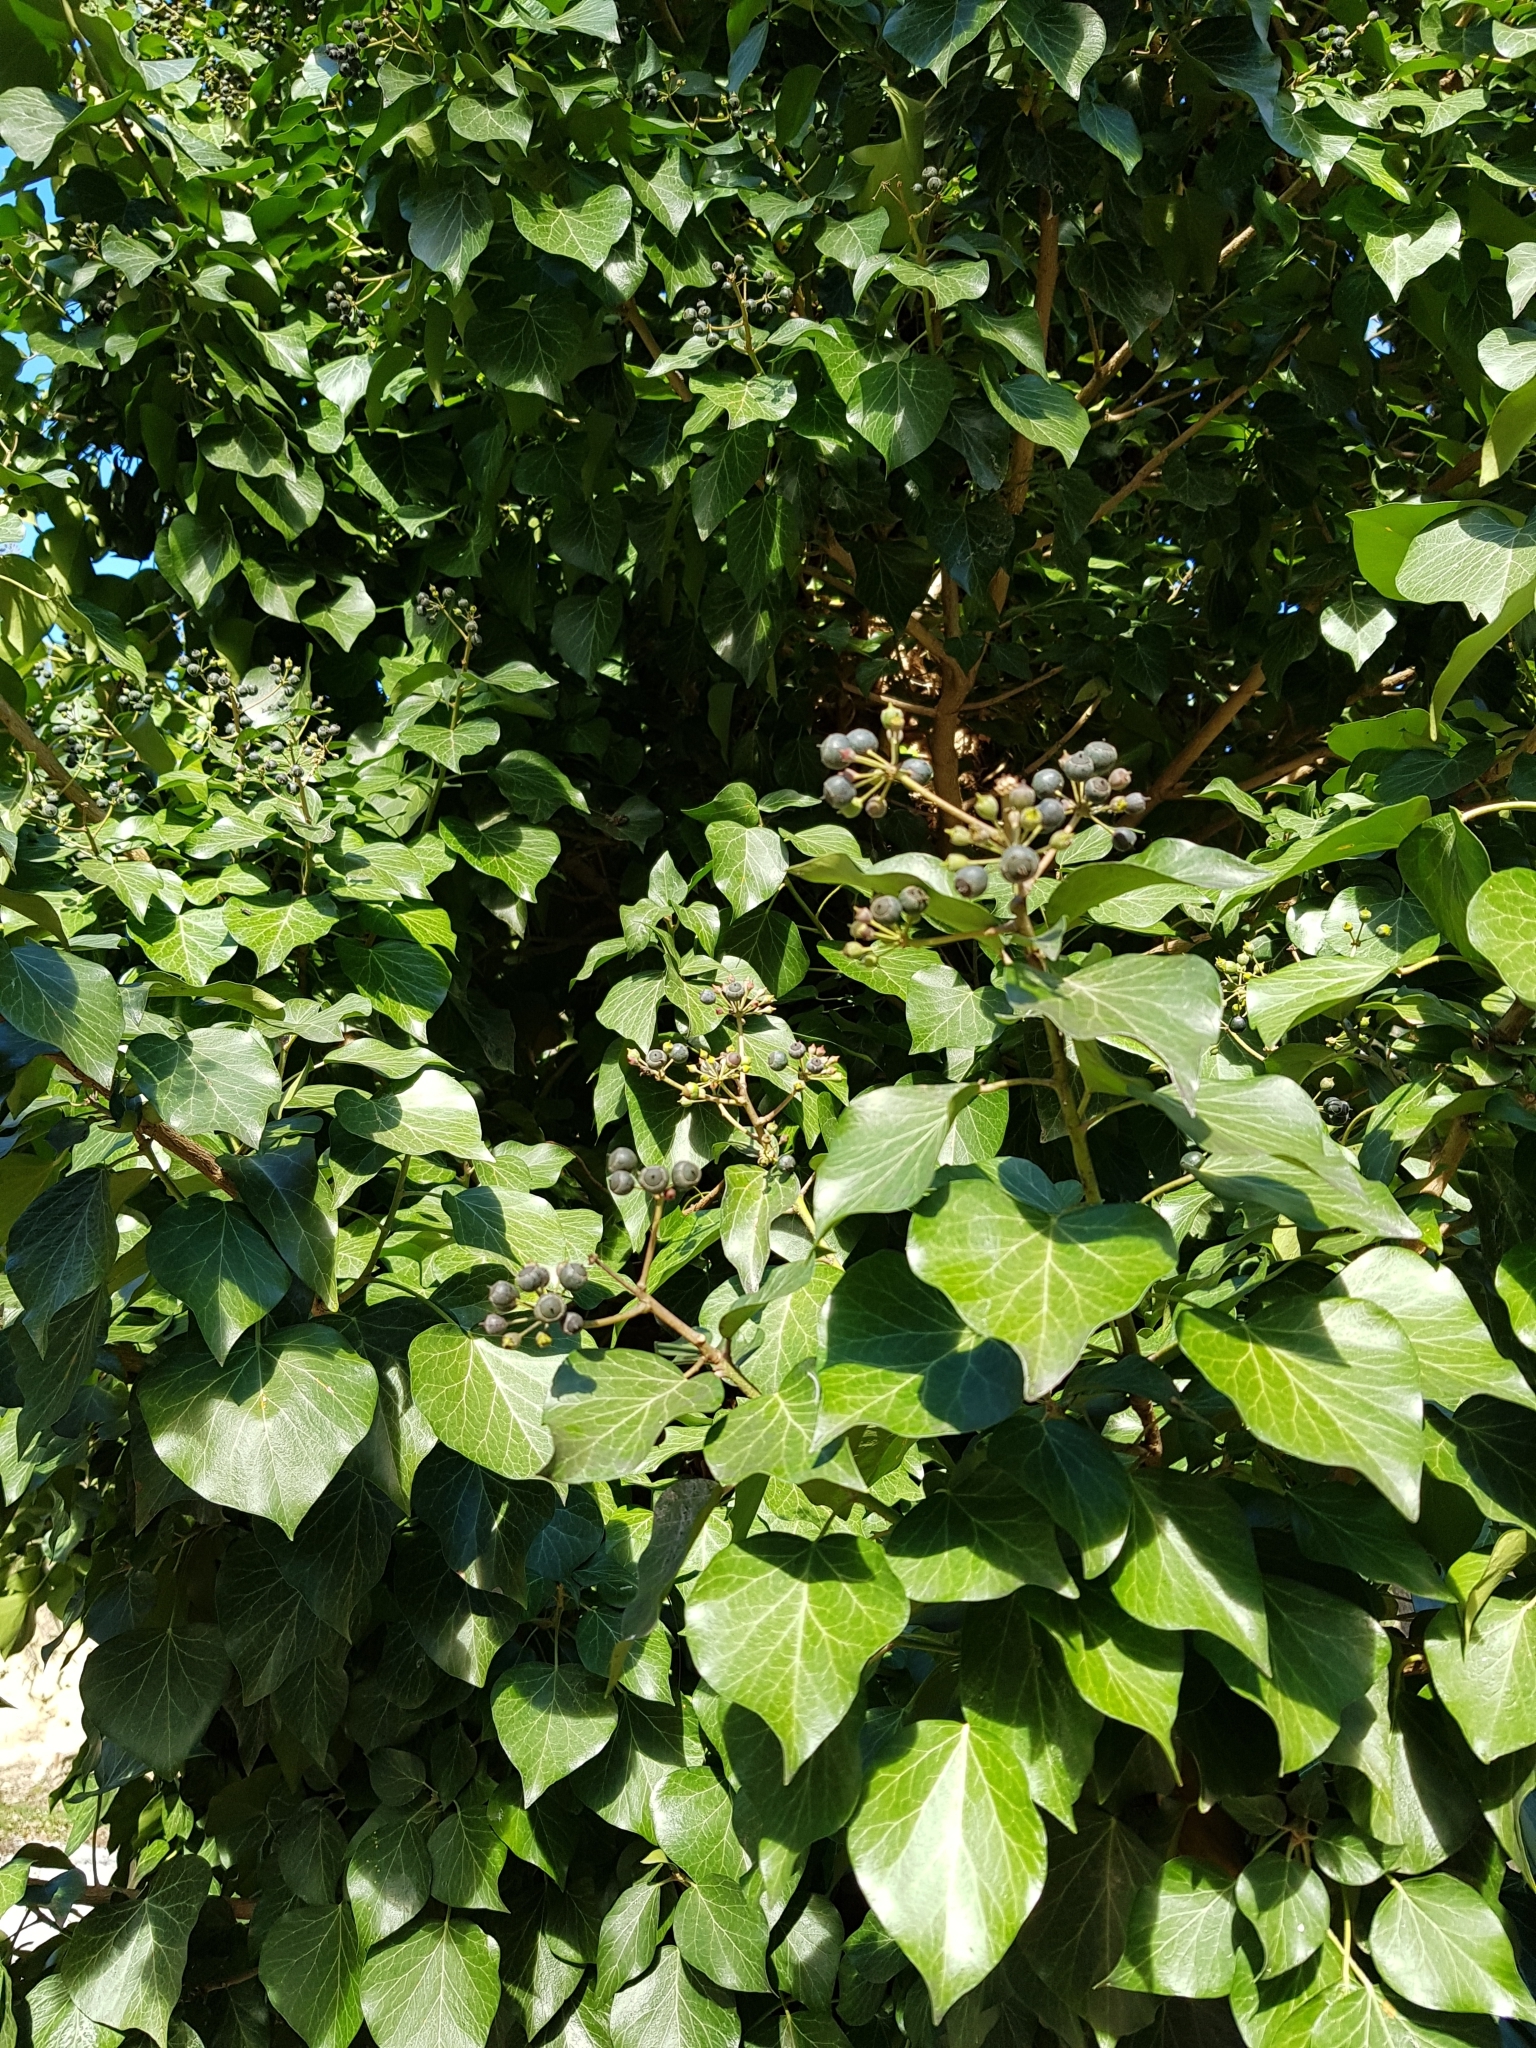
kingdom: Plantae
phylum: Tracheophyta
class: Magnoliopsida
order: Apiales
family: Araliaceae
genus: Hedera
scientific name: Hedera helix
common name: Ivy
